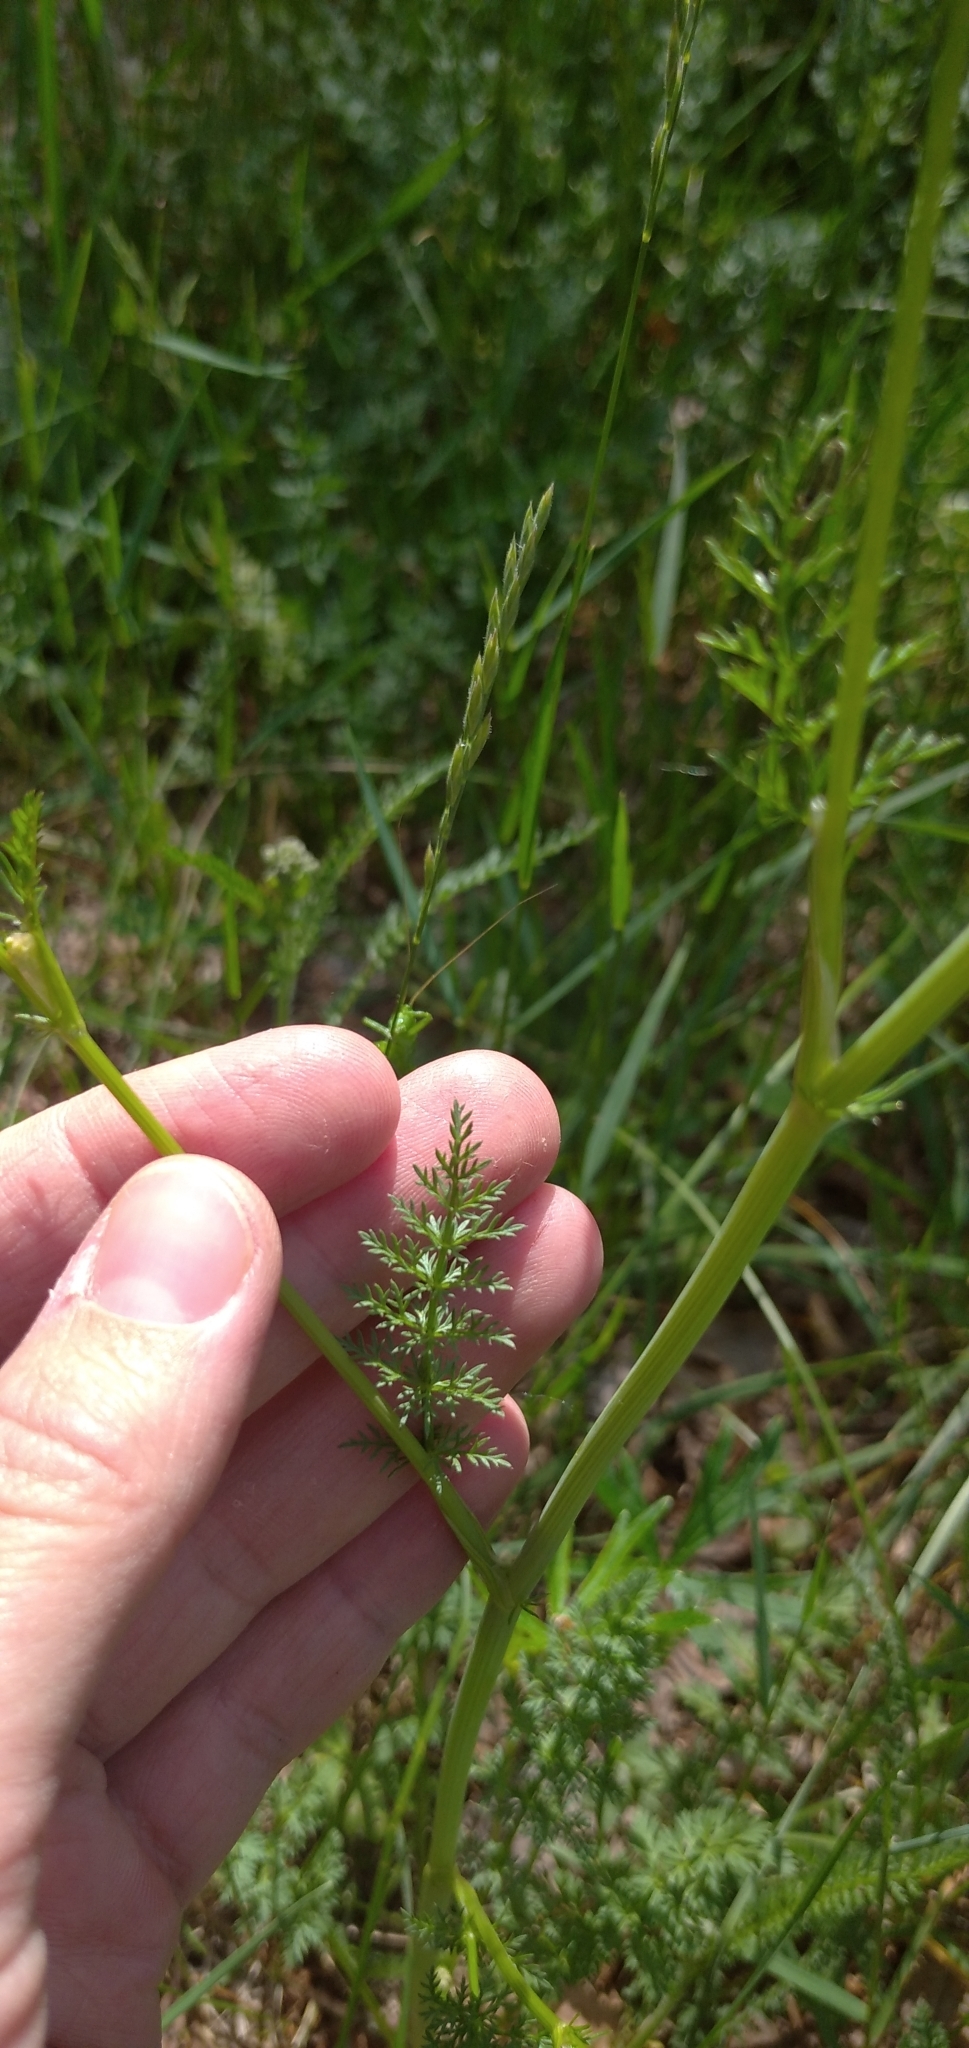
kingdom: Plantae
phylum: Tracheophyta
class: Magnoliopsida
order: Apiales
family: Apiaceae
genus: Carum
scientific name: Carum carvi
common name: Caraway
